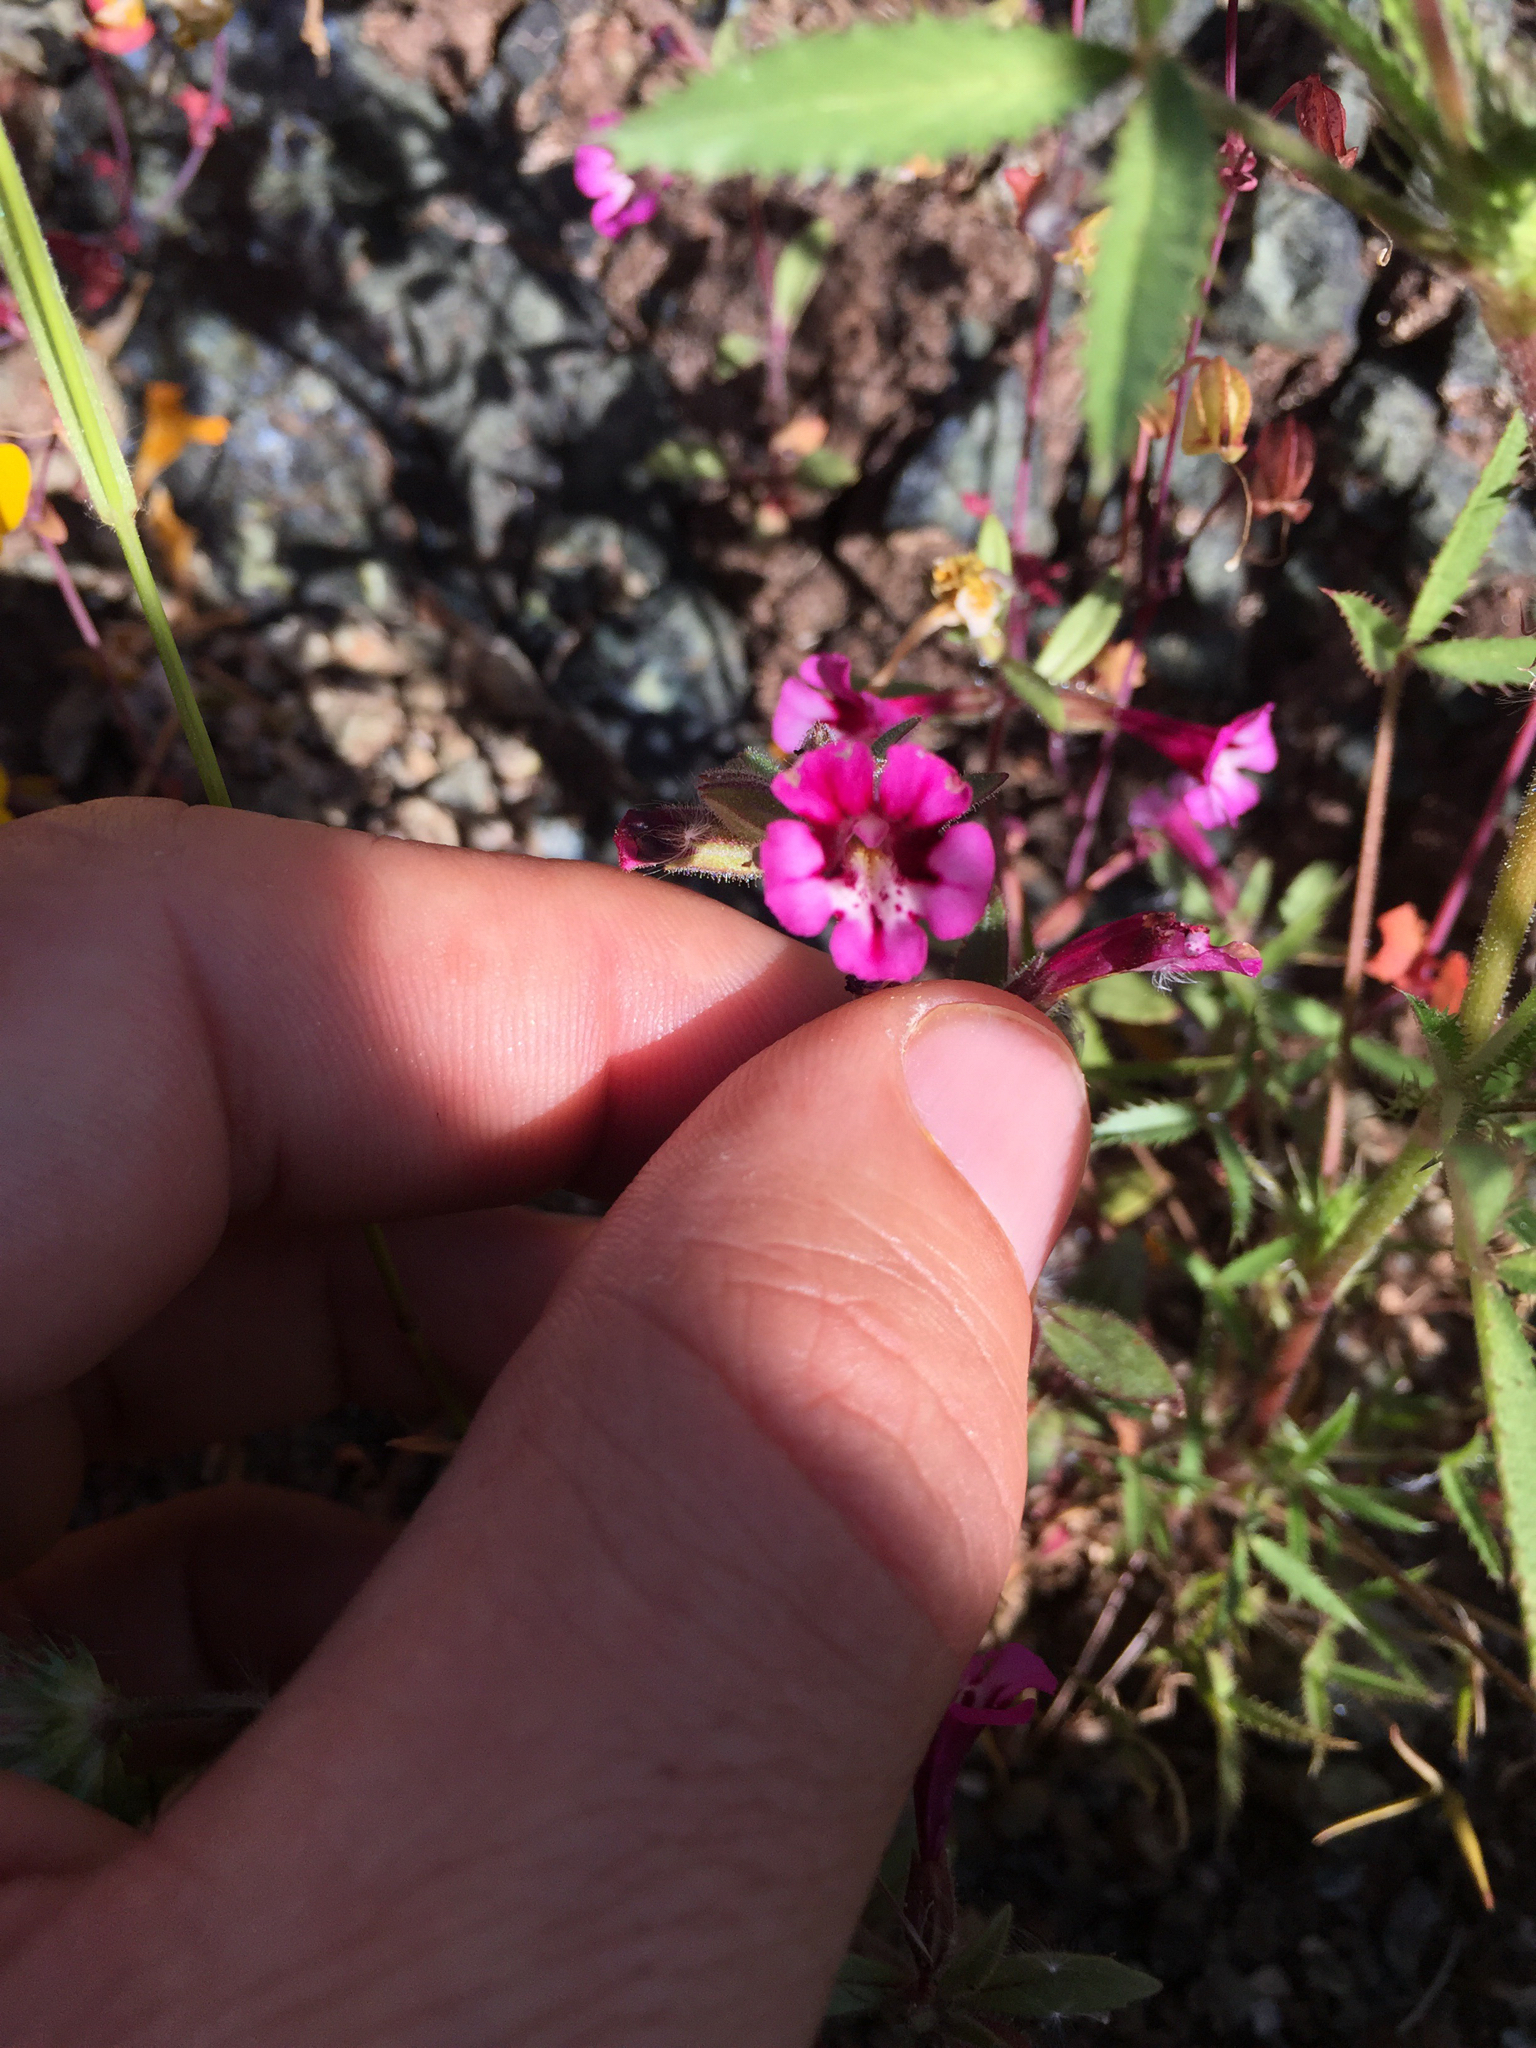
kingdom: Plantae
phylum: Tracheophyta
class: Magnoliopsida
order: Lamiales
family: Phrymaceae
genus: Diplacus
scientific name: Diplacus layneae
